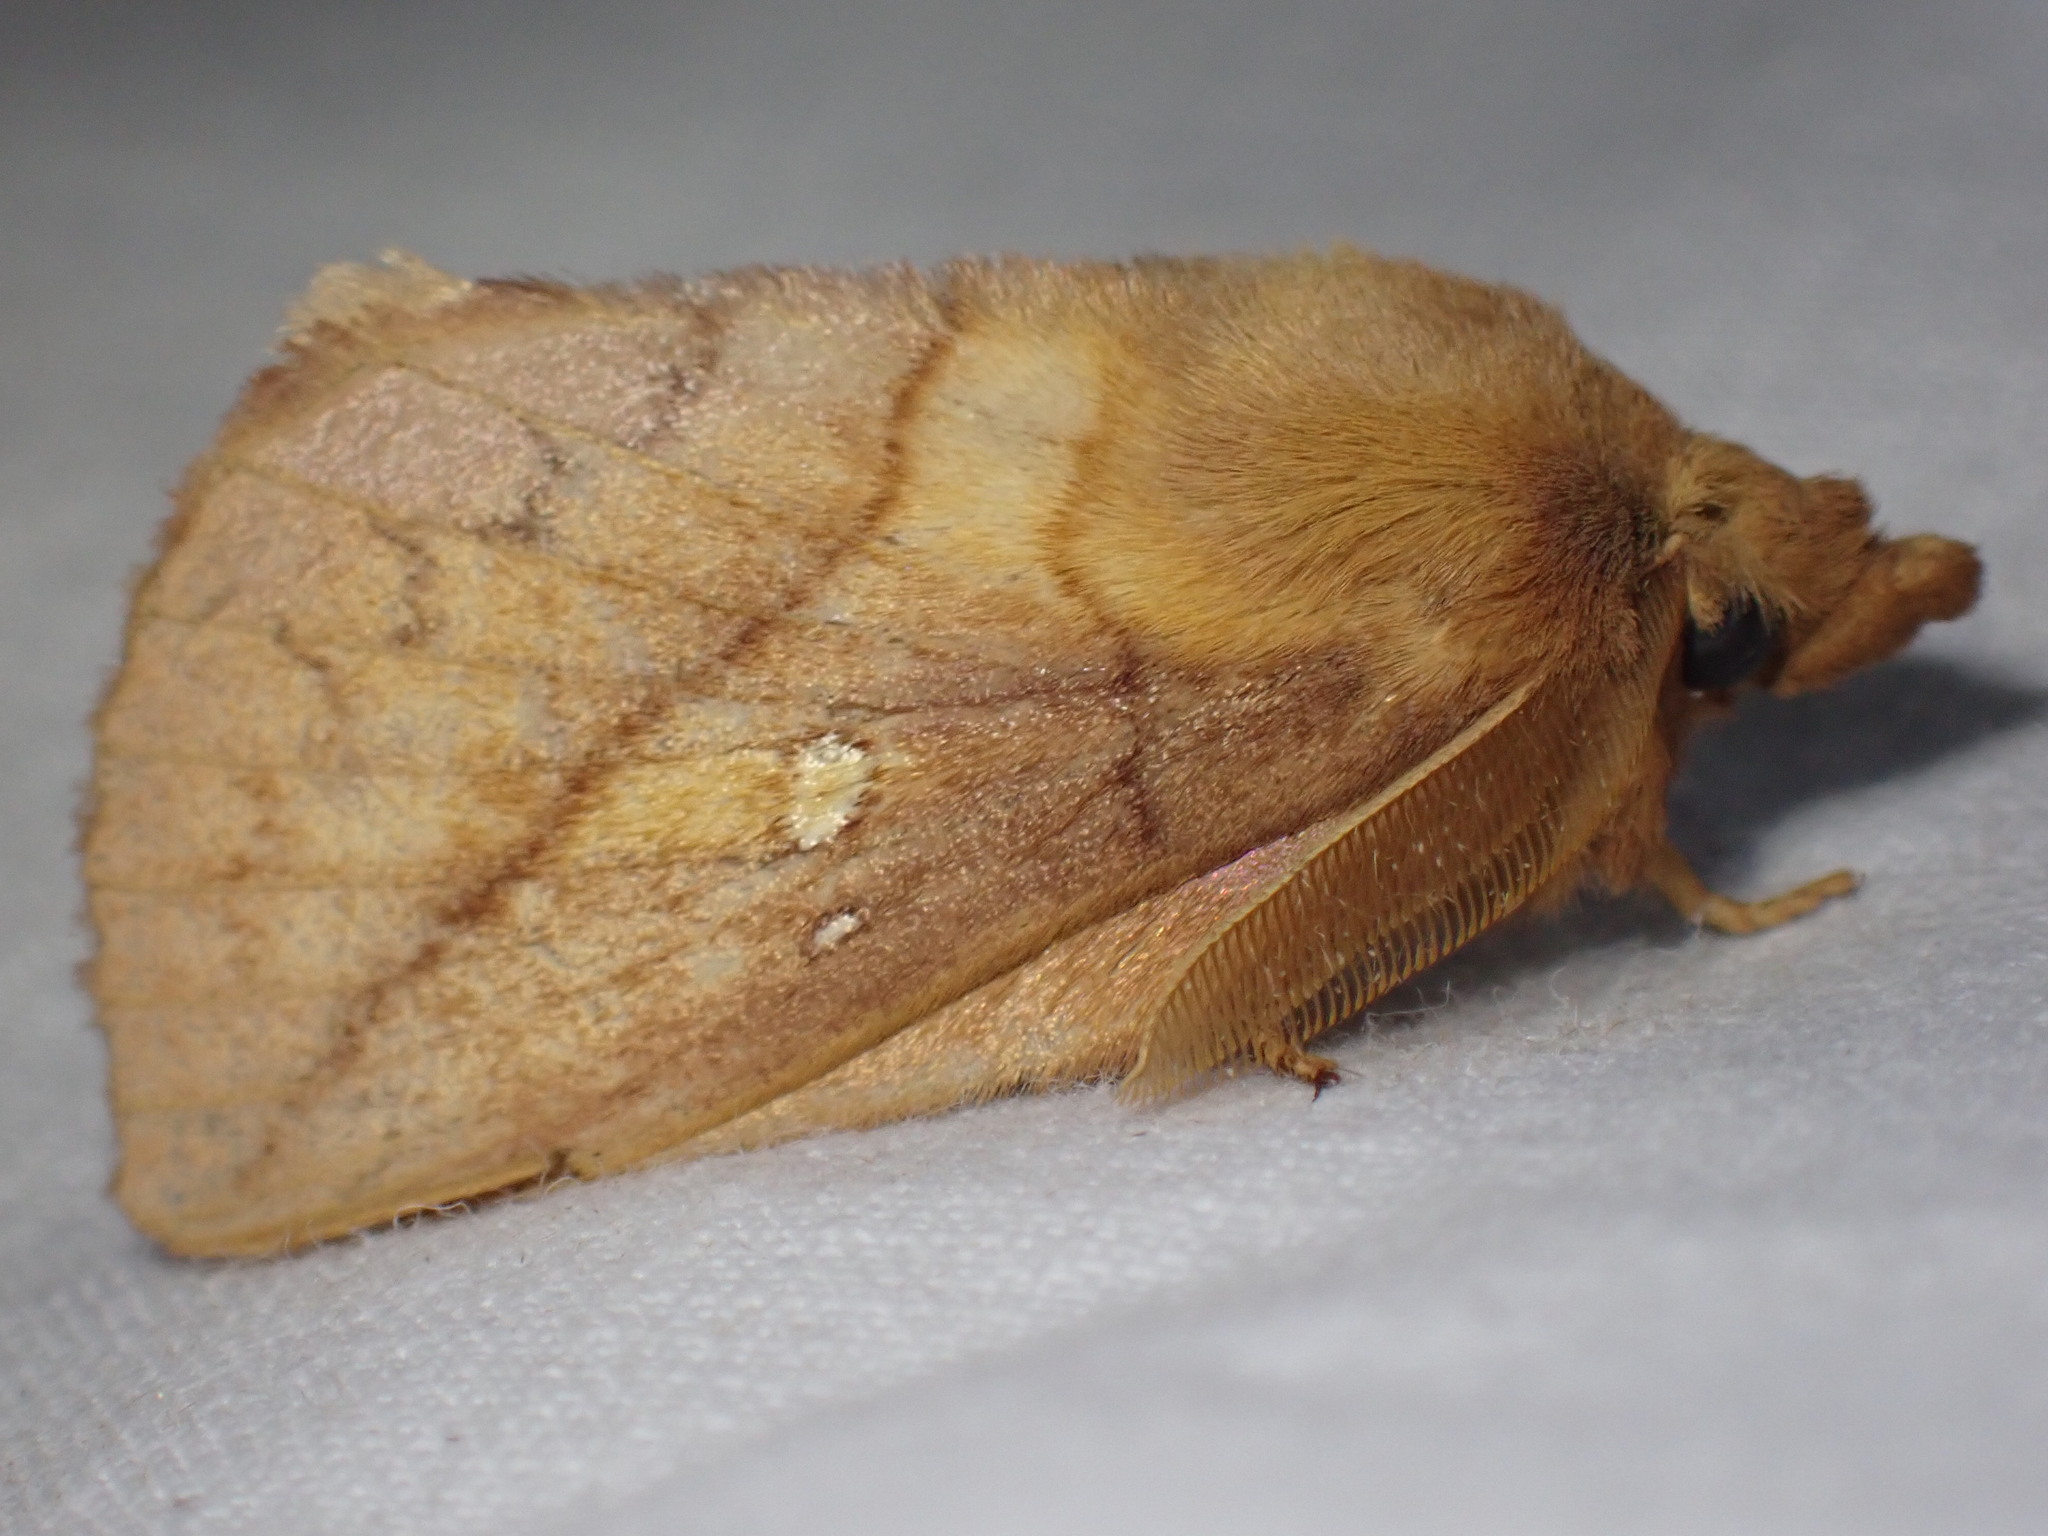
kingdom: Animalia
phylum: Arthropoda
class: Insecta
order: Lepidoptera
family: Lasiocampidae
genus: Euthrix
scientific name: Euthrix potatoria
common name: Drinker
